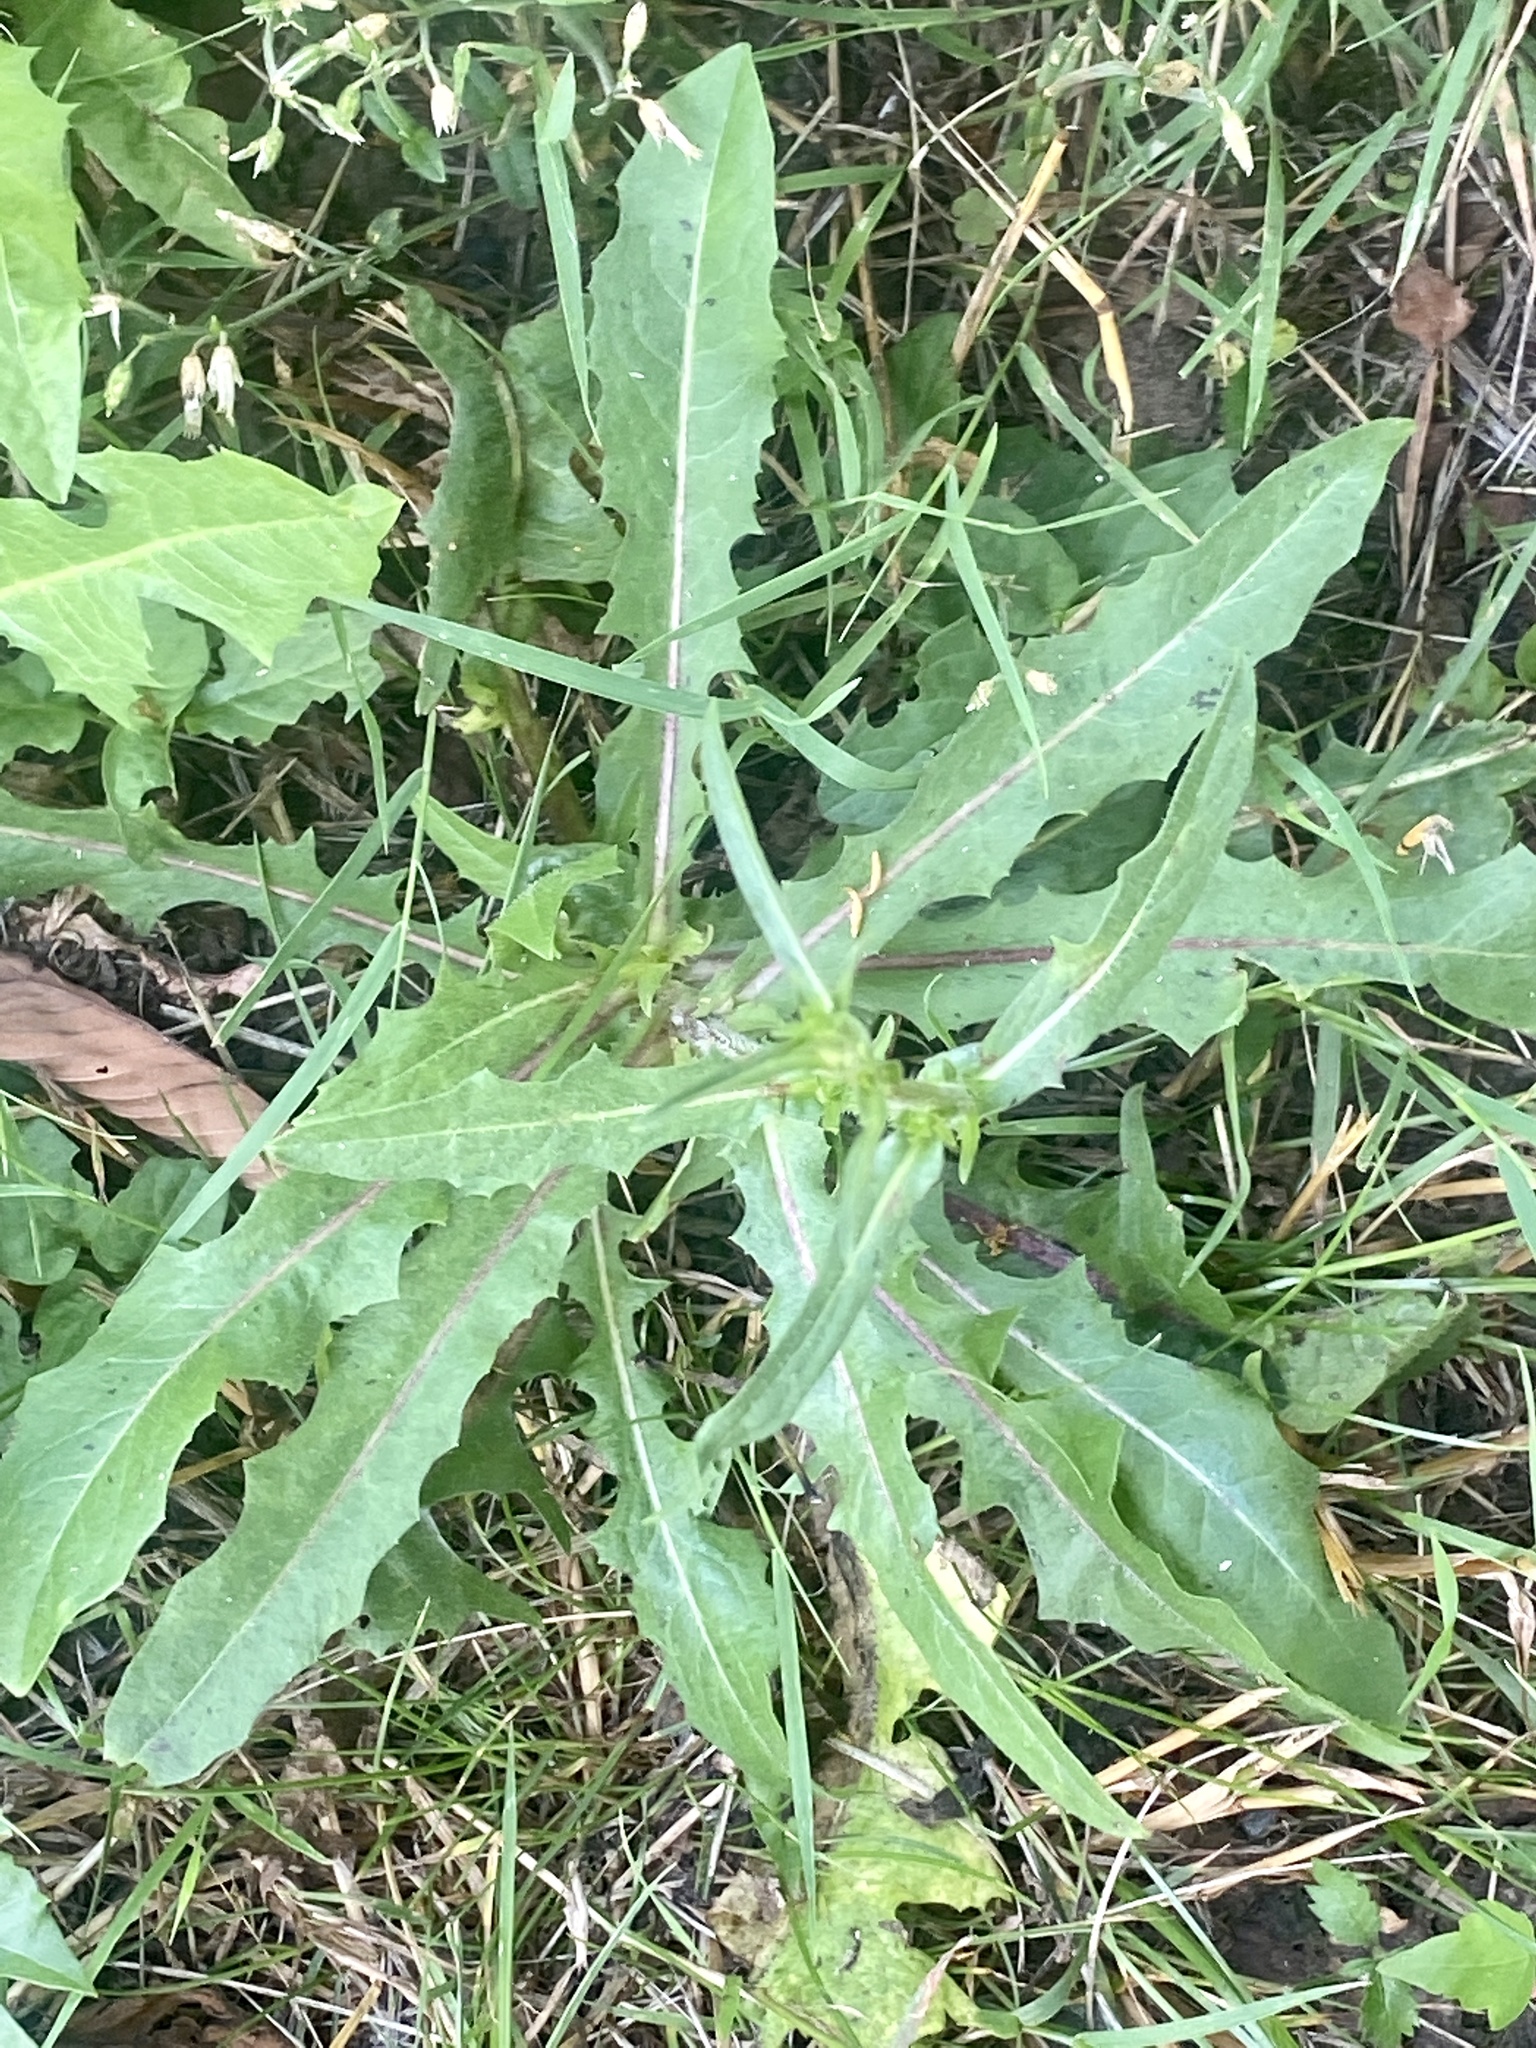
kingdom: Plantae
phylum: Tracheophyta
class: Magnoliopsida
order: Asterales
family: Asteraceae
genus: Cichorium
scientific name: Cichorium intybus
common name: Chicory
